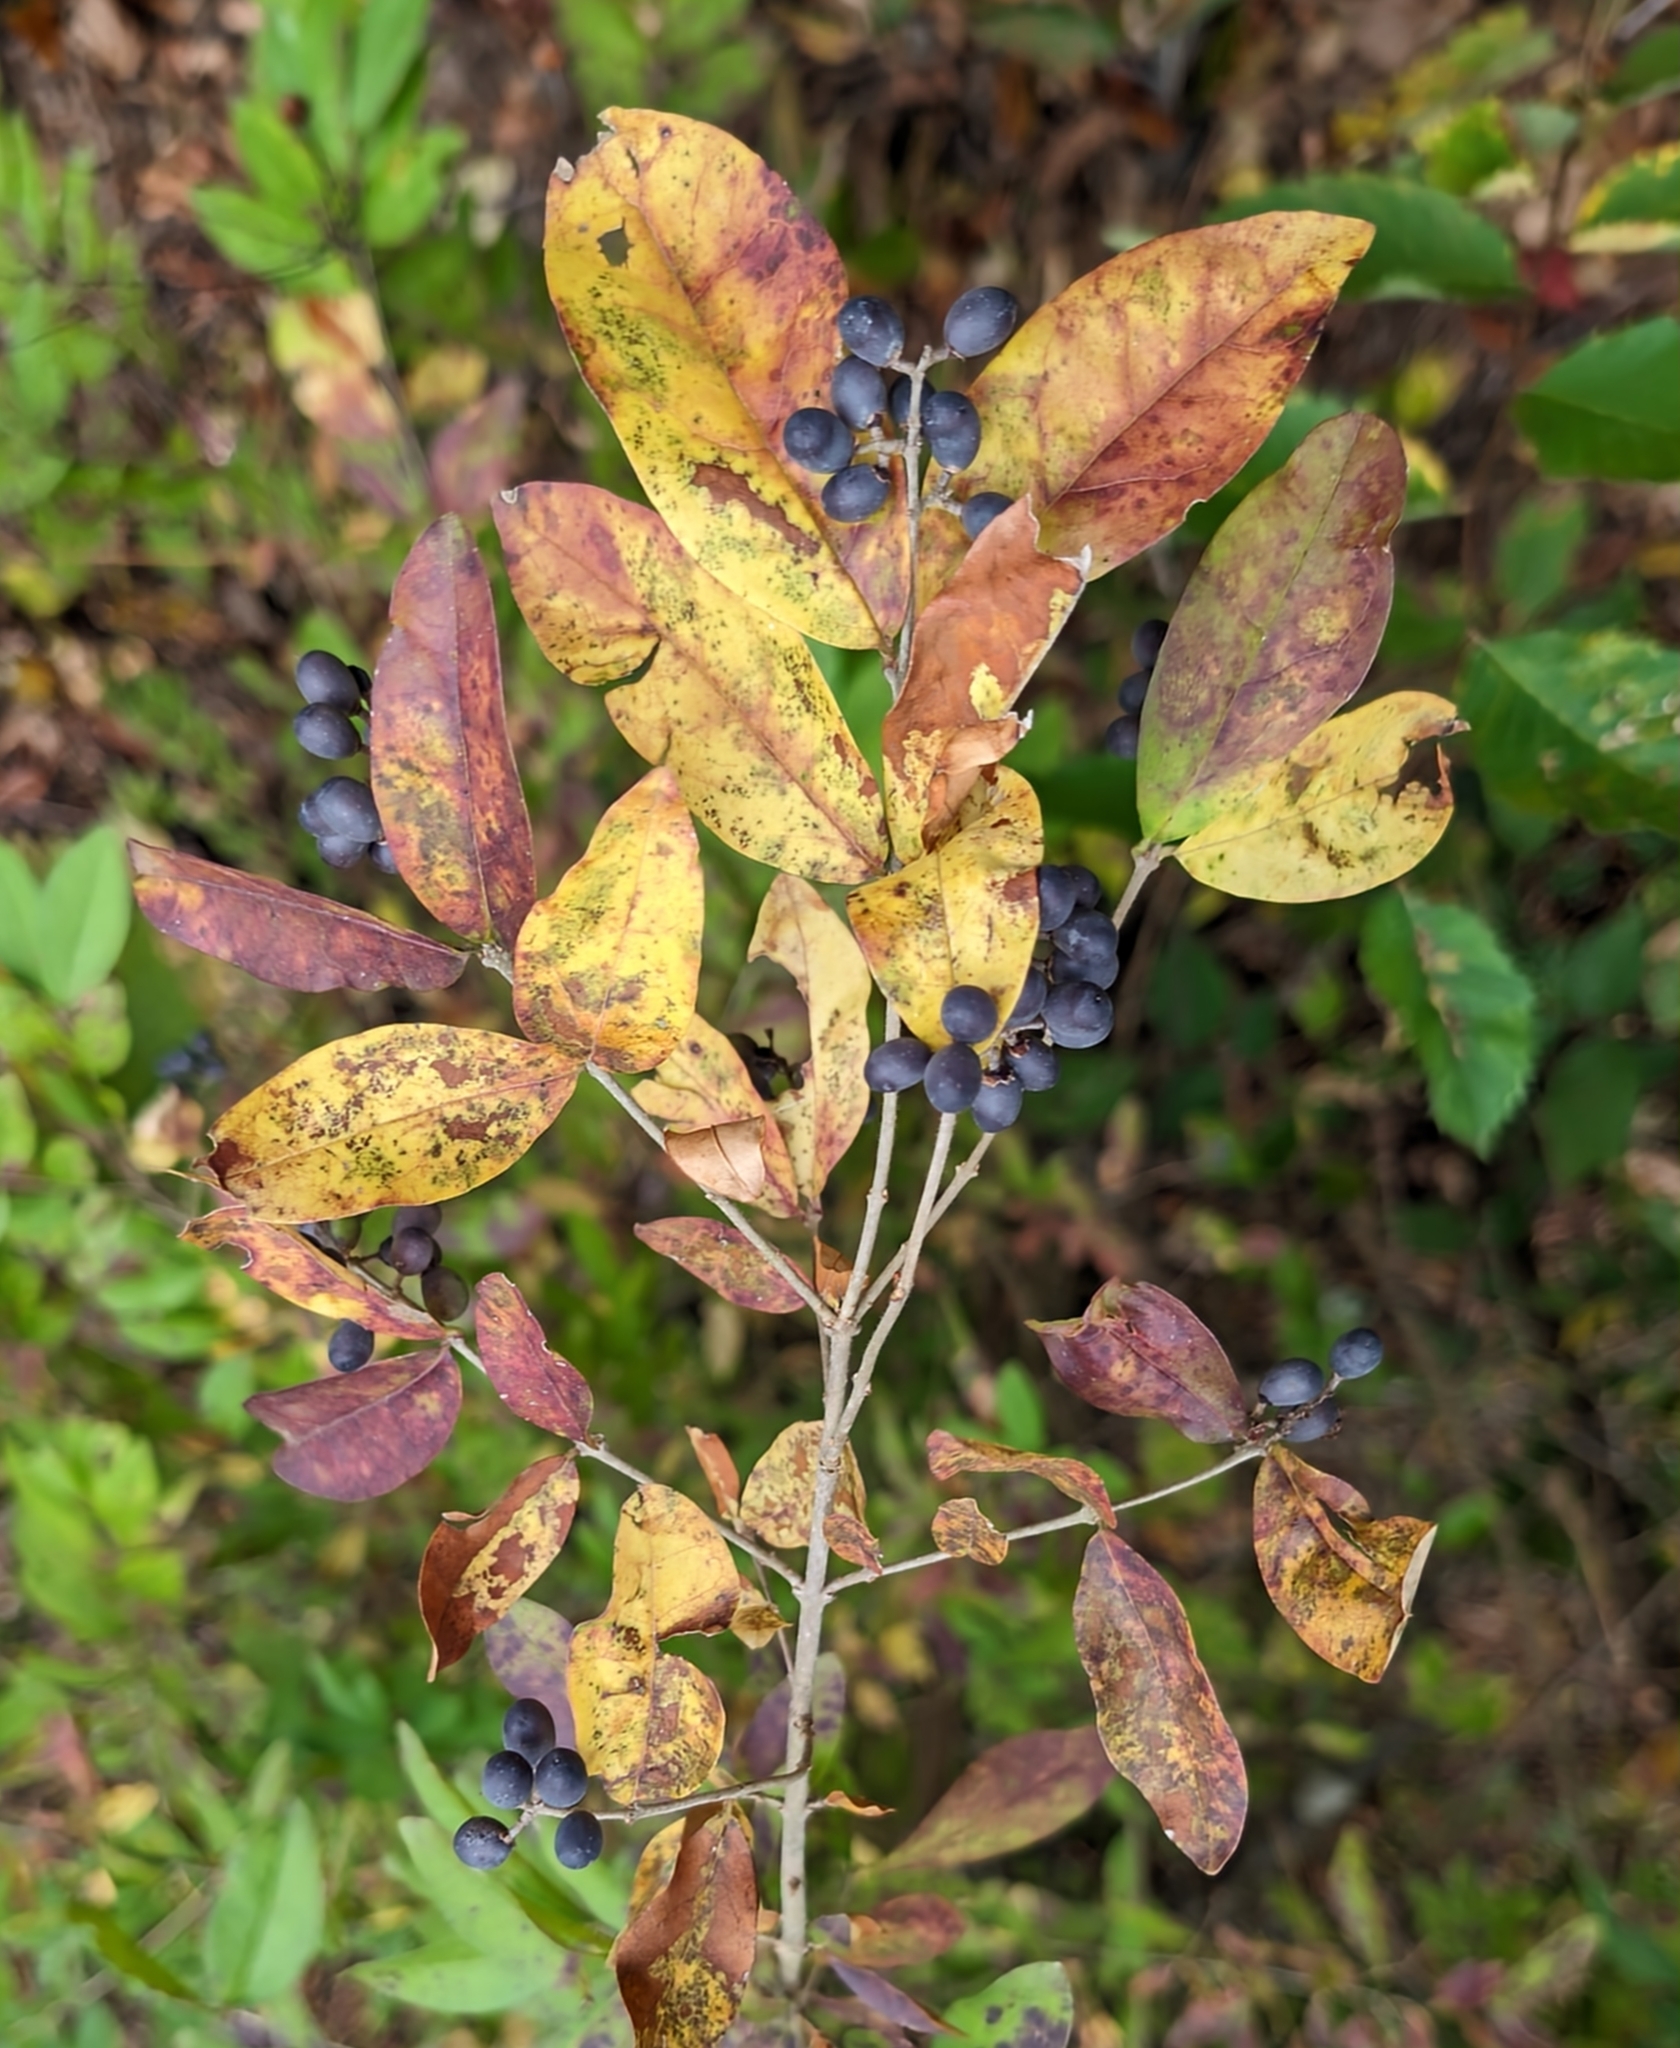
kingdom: Plantae
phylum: Tracheophyta
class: Magnoliopsida
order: Lamiales
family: Oleaceae
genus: Ligustrum
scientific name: Ligustrum obtusifolium
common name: Border privet
